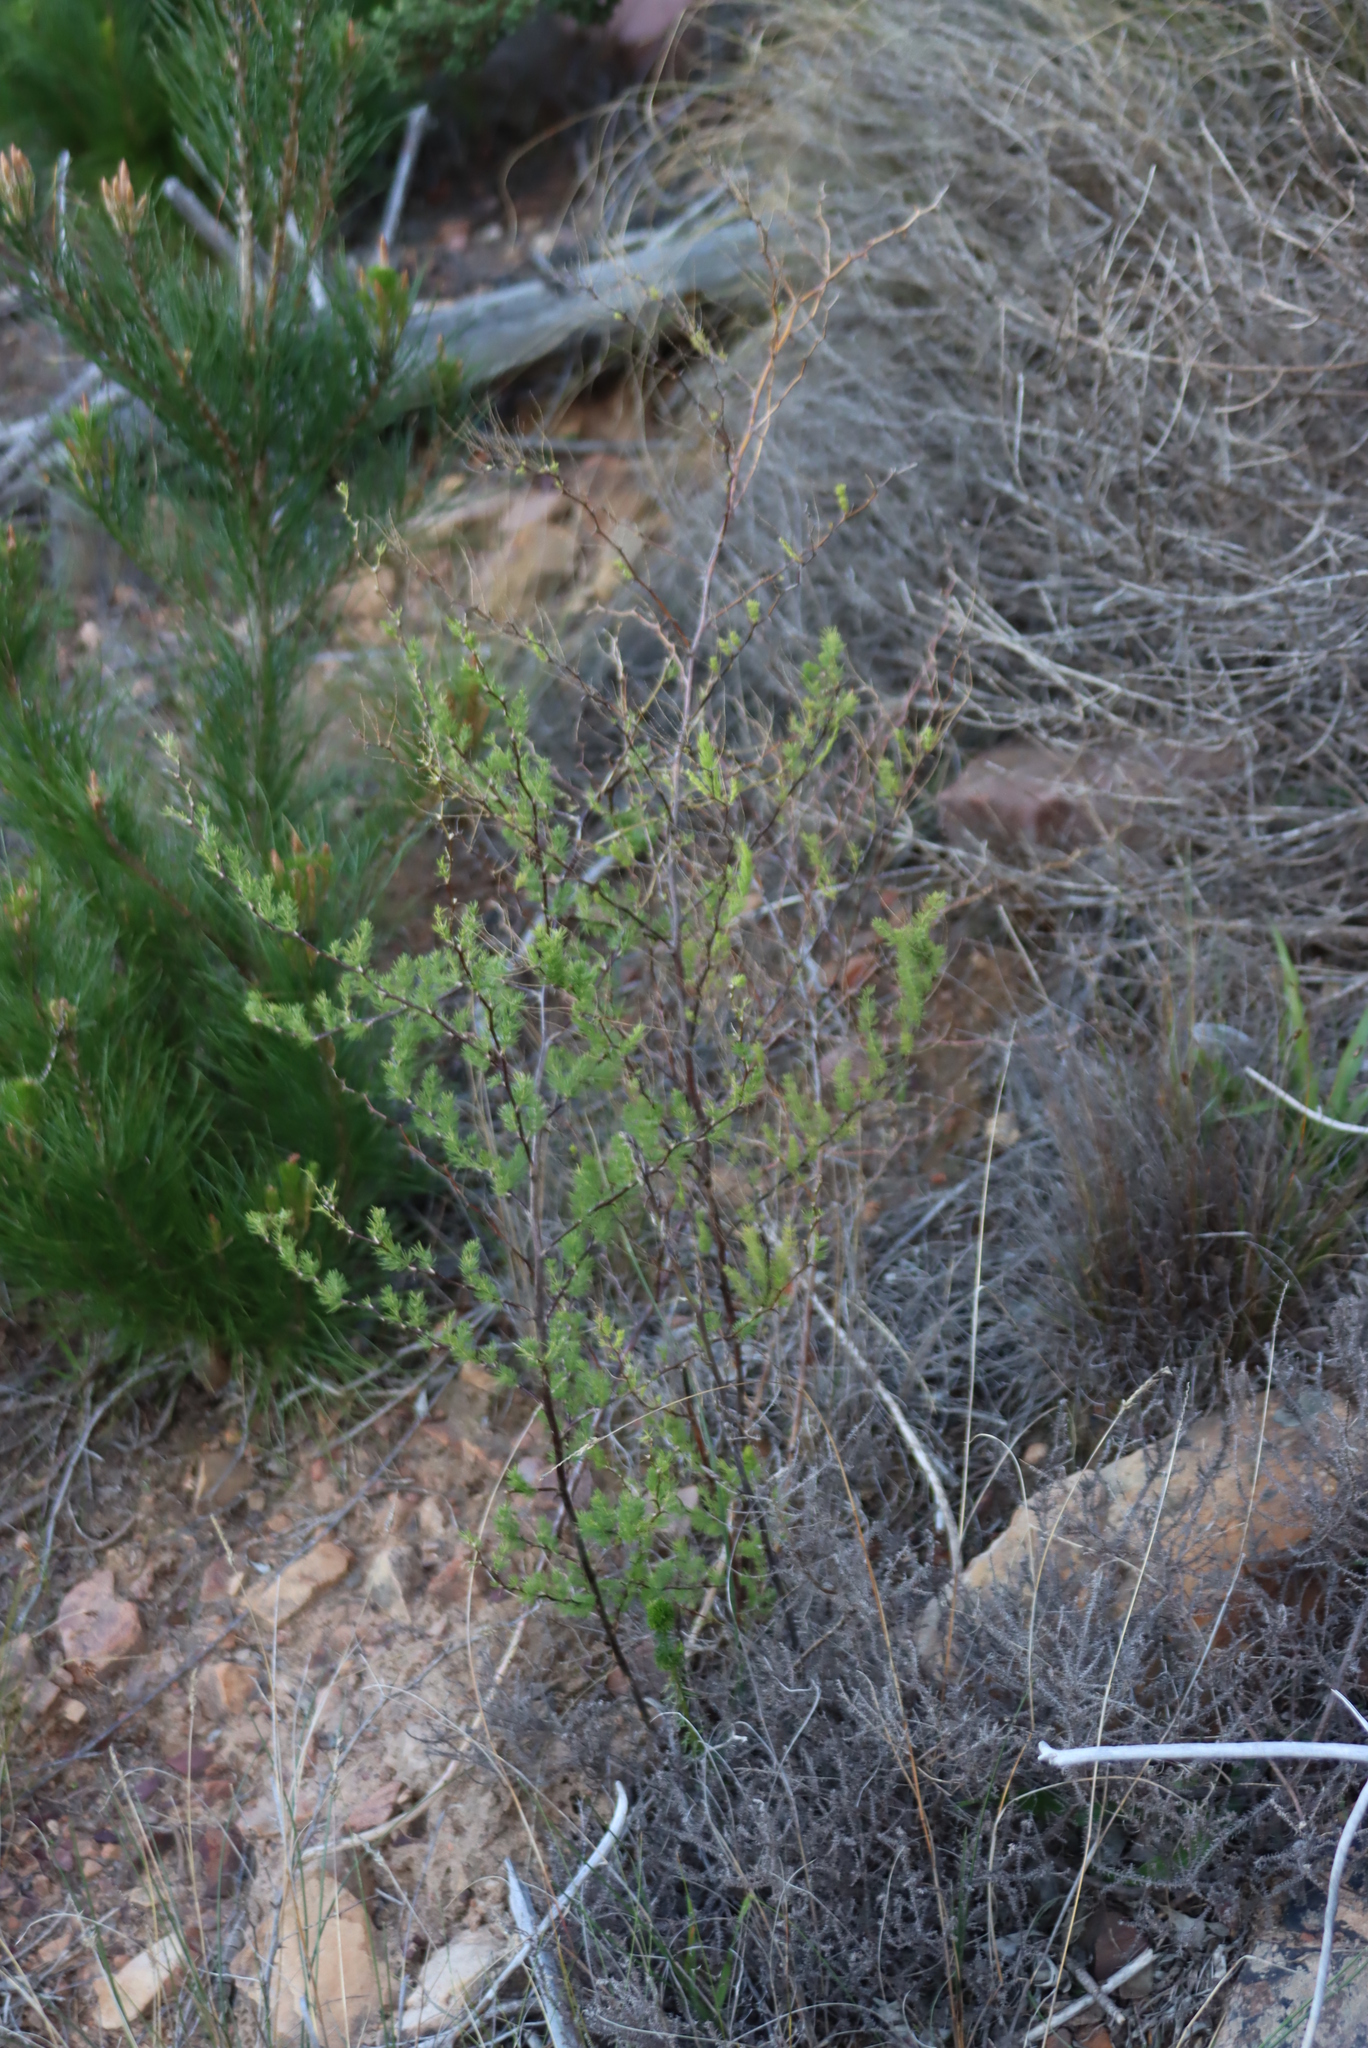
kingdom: Plantae
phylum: Tracheophyta
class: Liliopsida
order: Asparagales
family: Asparagaceae
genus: Asparagus
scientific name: Asparagus rubicundus
